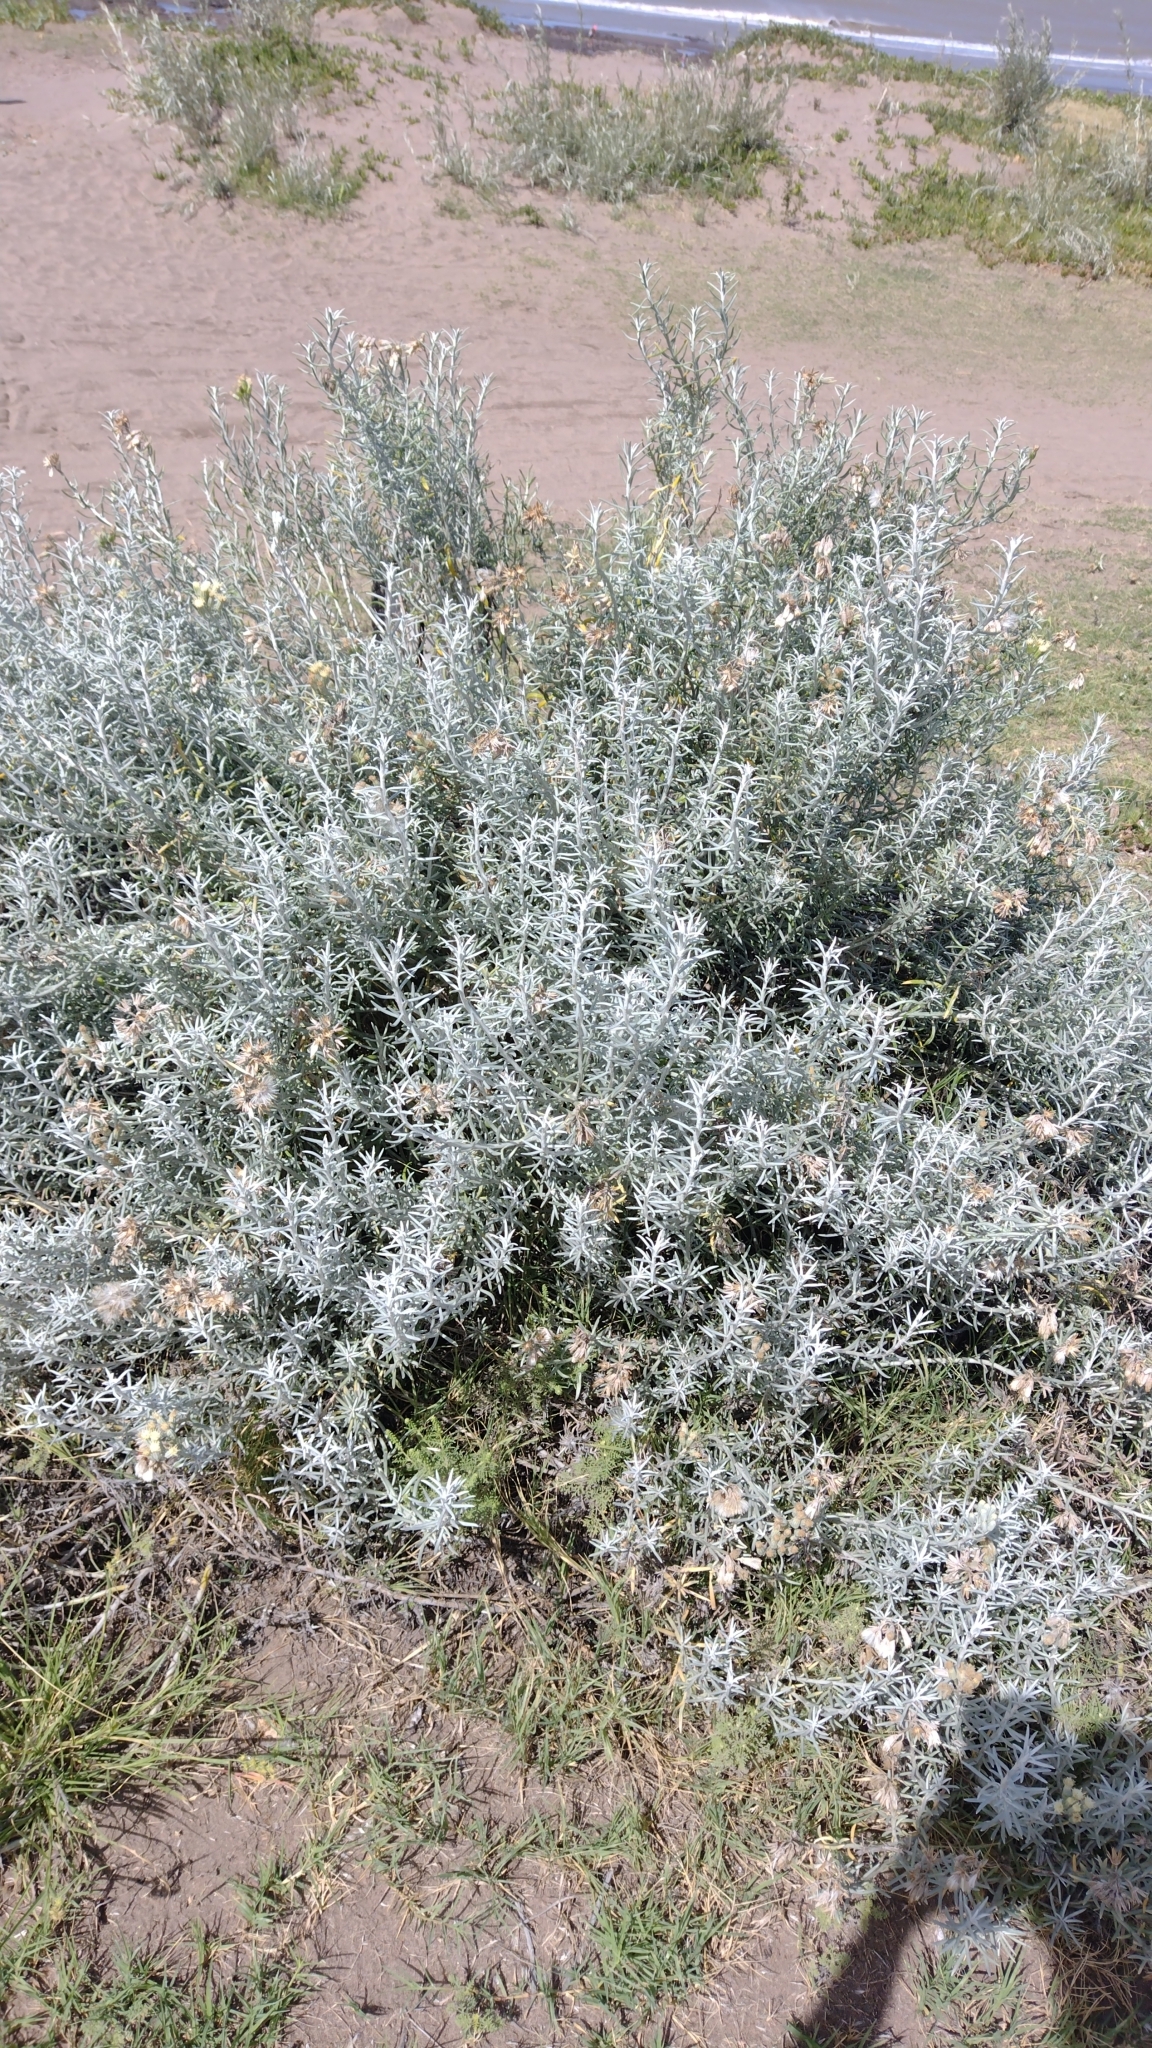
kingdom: Plantae
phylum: Tracheophyta
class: Magnoliopsida
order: Asterales
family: Asteraceae
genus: Senecio
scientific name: Senecio bergii
